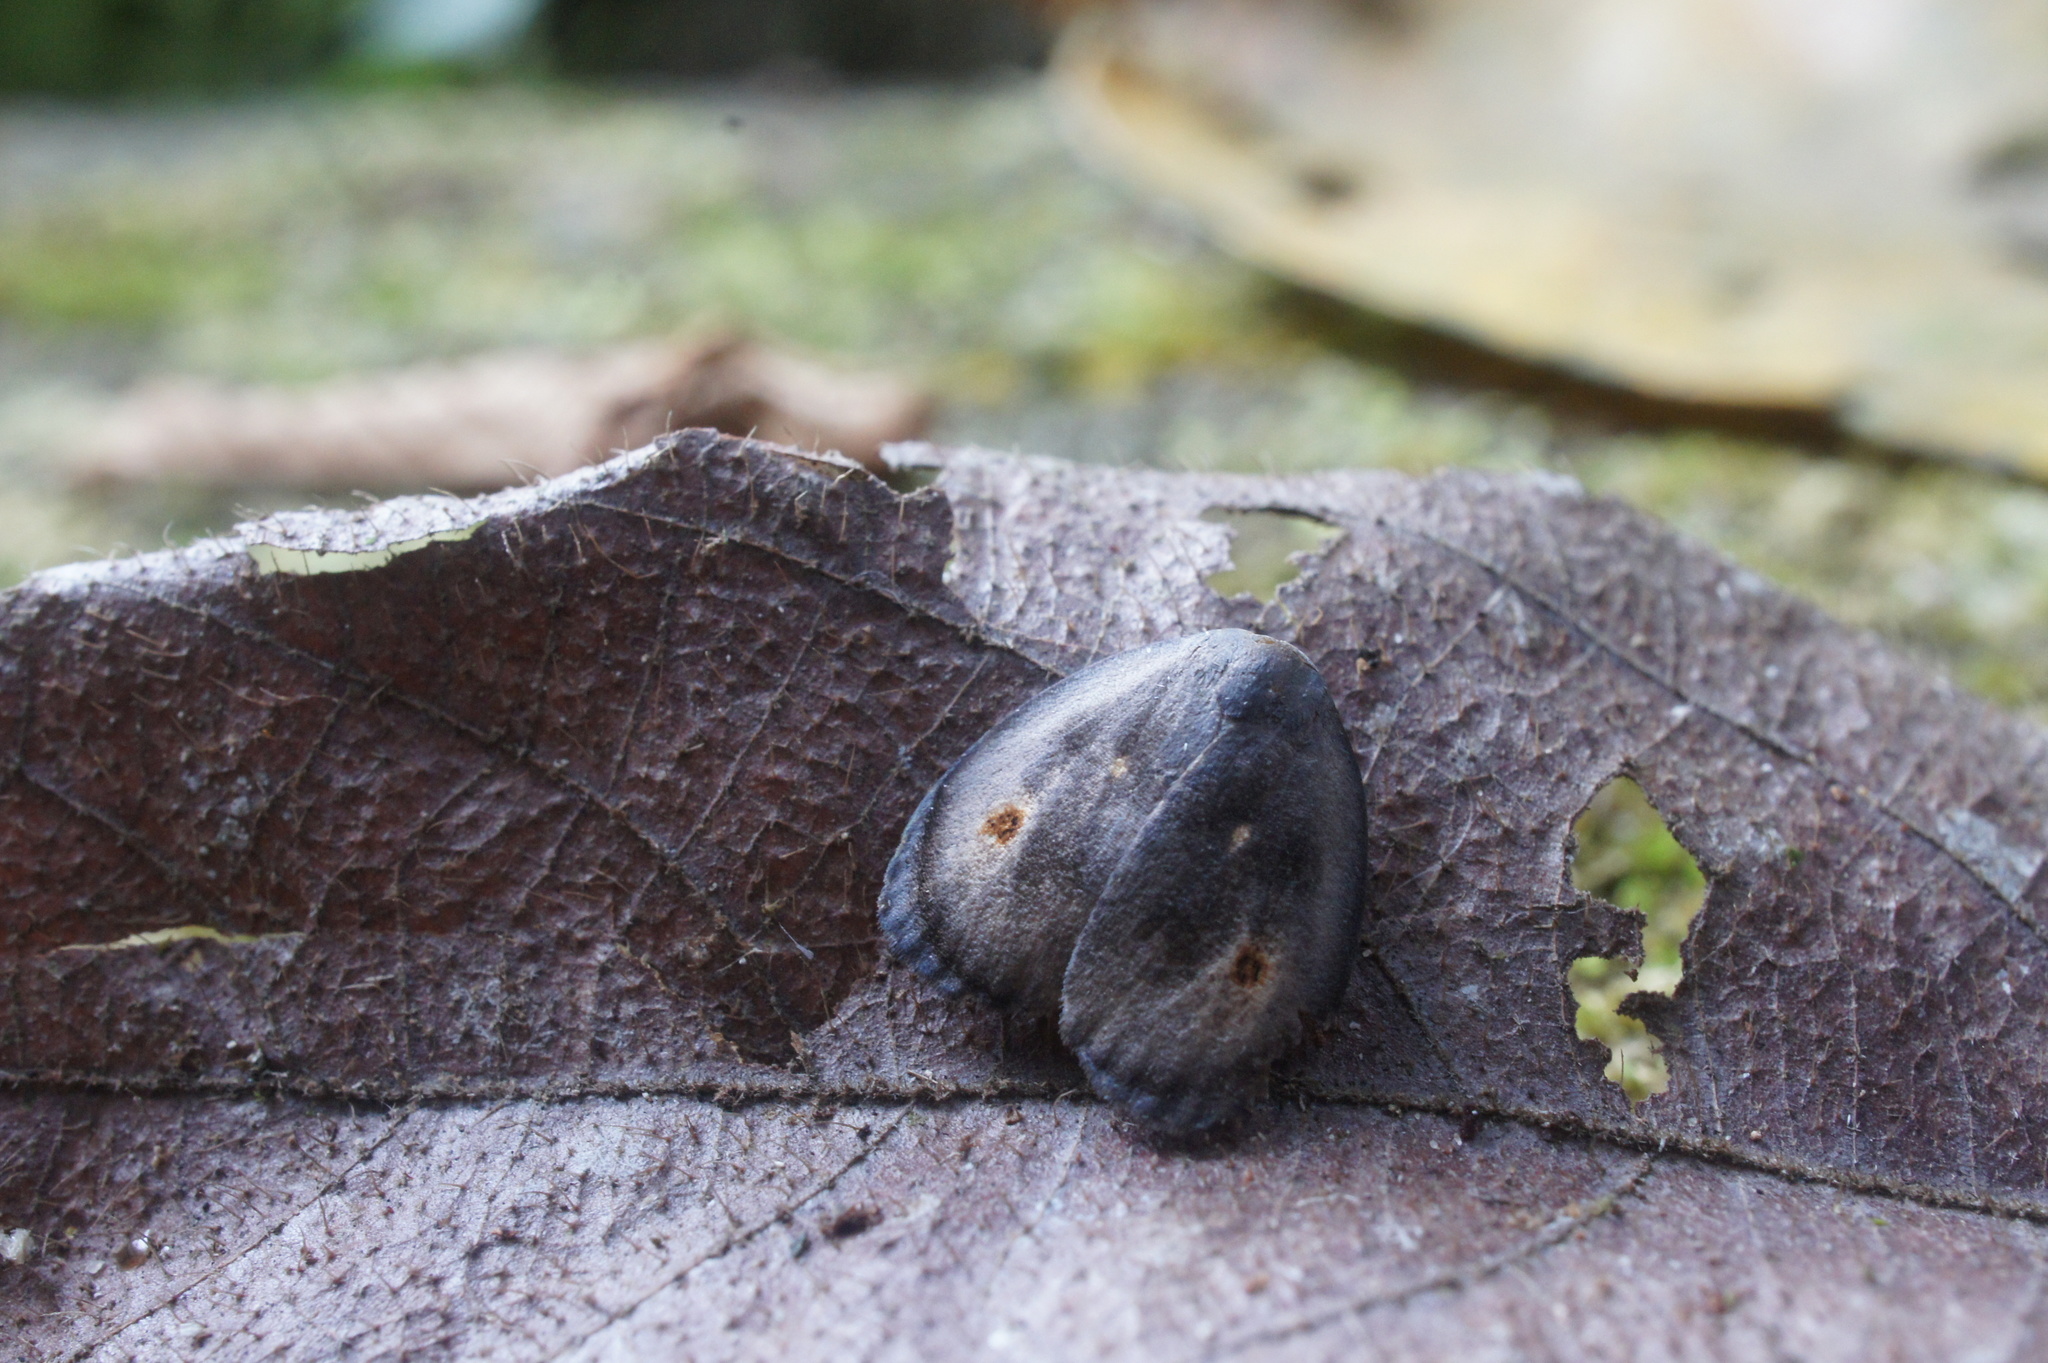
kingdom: Animalia
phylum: Arthropoda
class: Insecta
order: Lepidoptera
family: Erebidae
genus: Hemonia
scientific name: Hemonia rotundata
